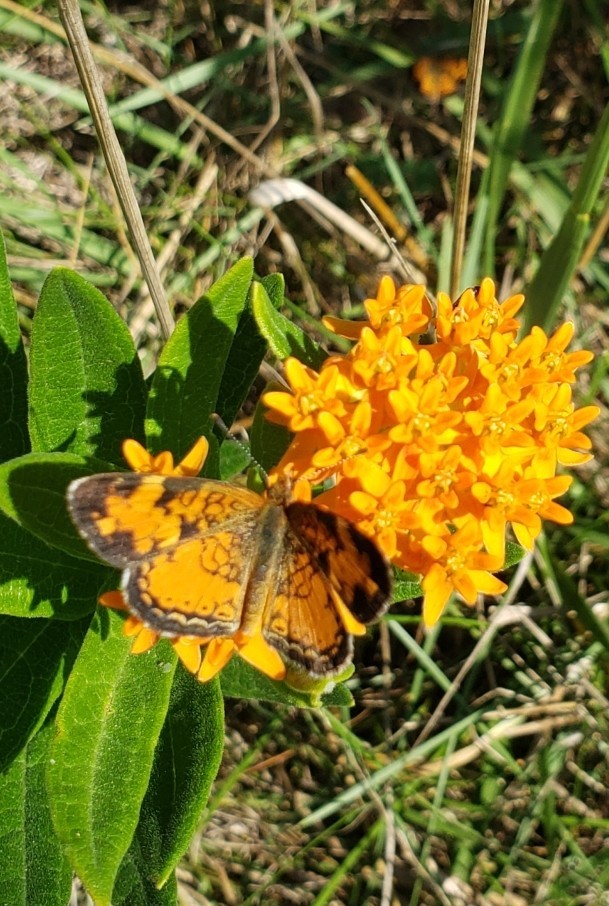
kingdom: Animalia
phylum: Arthropoda
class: Insecta
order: Lepidoptera
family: Nymphalidae
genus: Phyciodes
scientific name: Phyciodes tharos
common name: Pearl crescent
